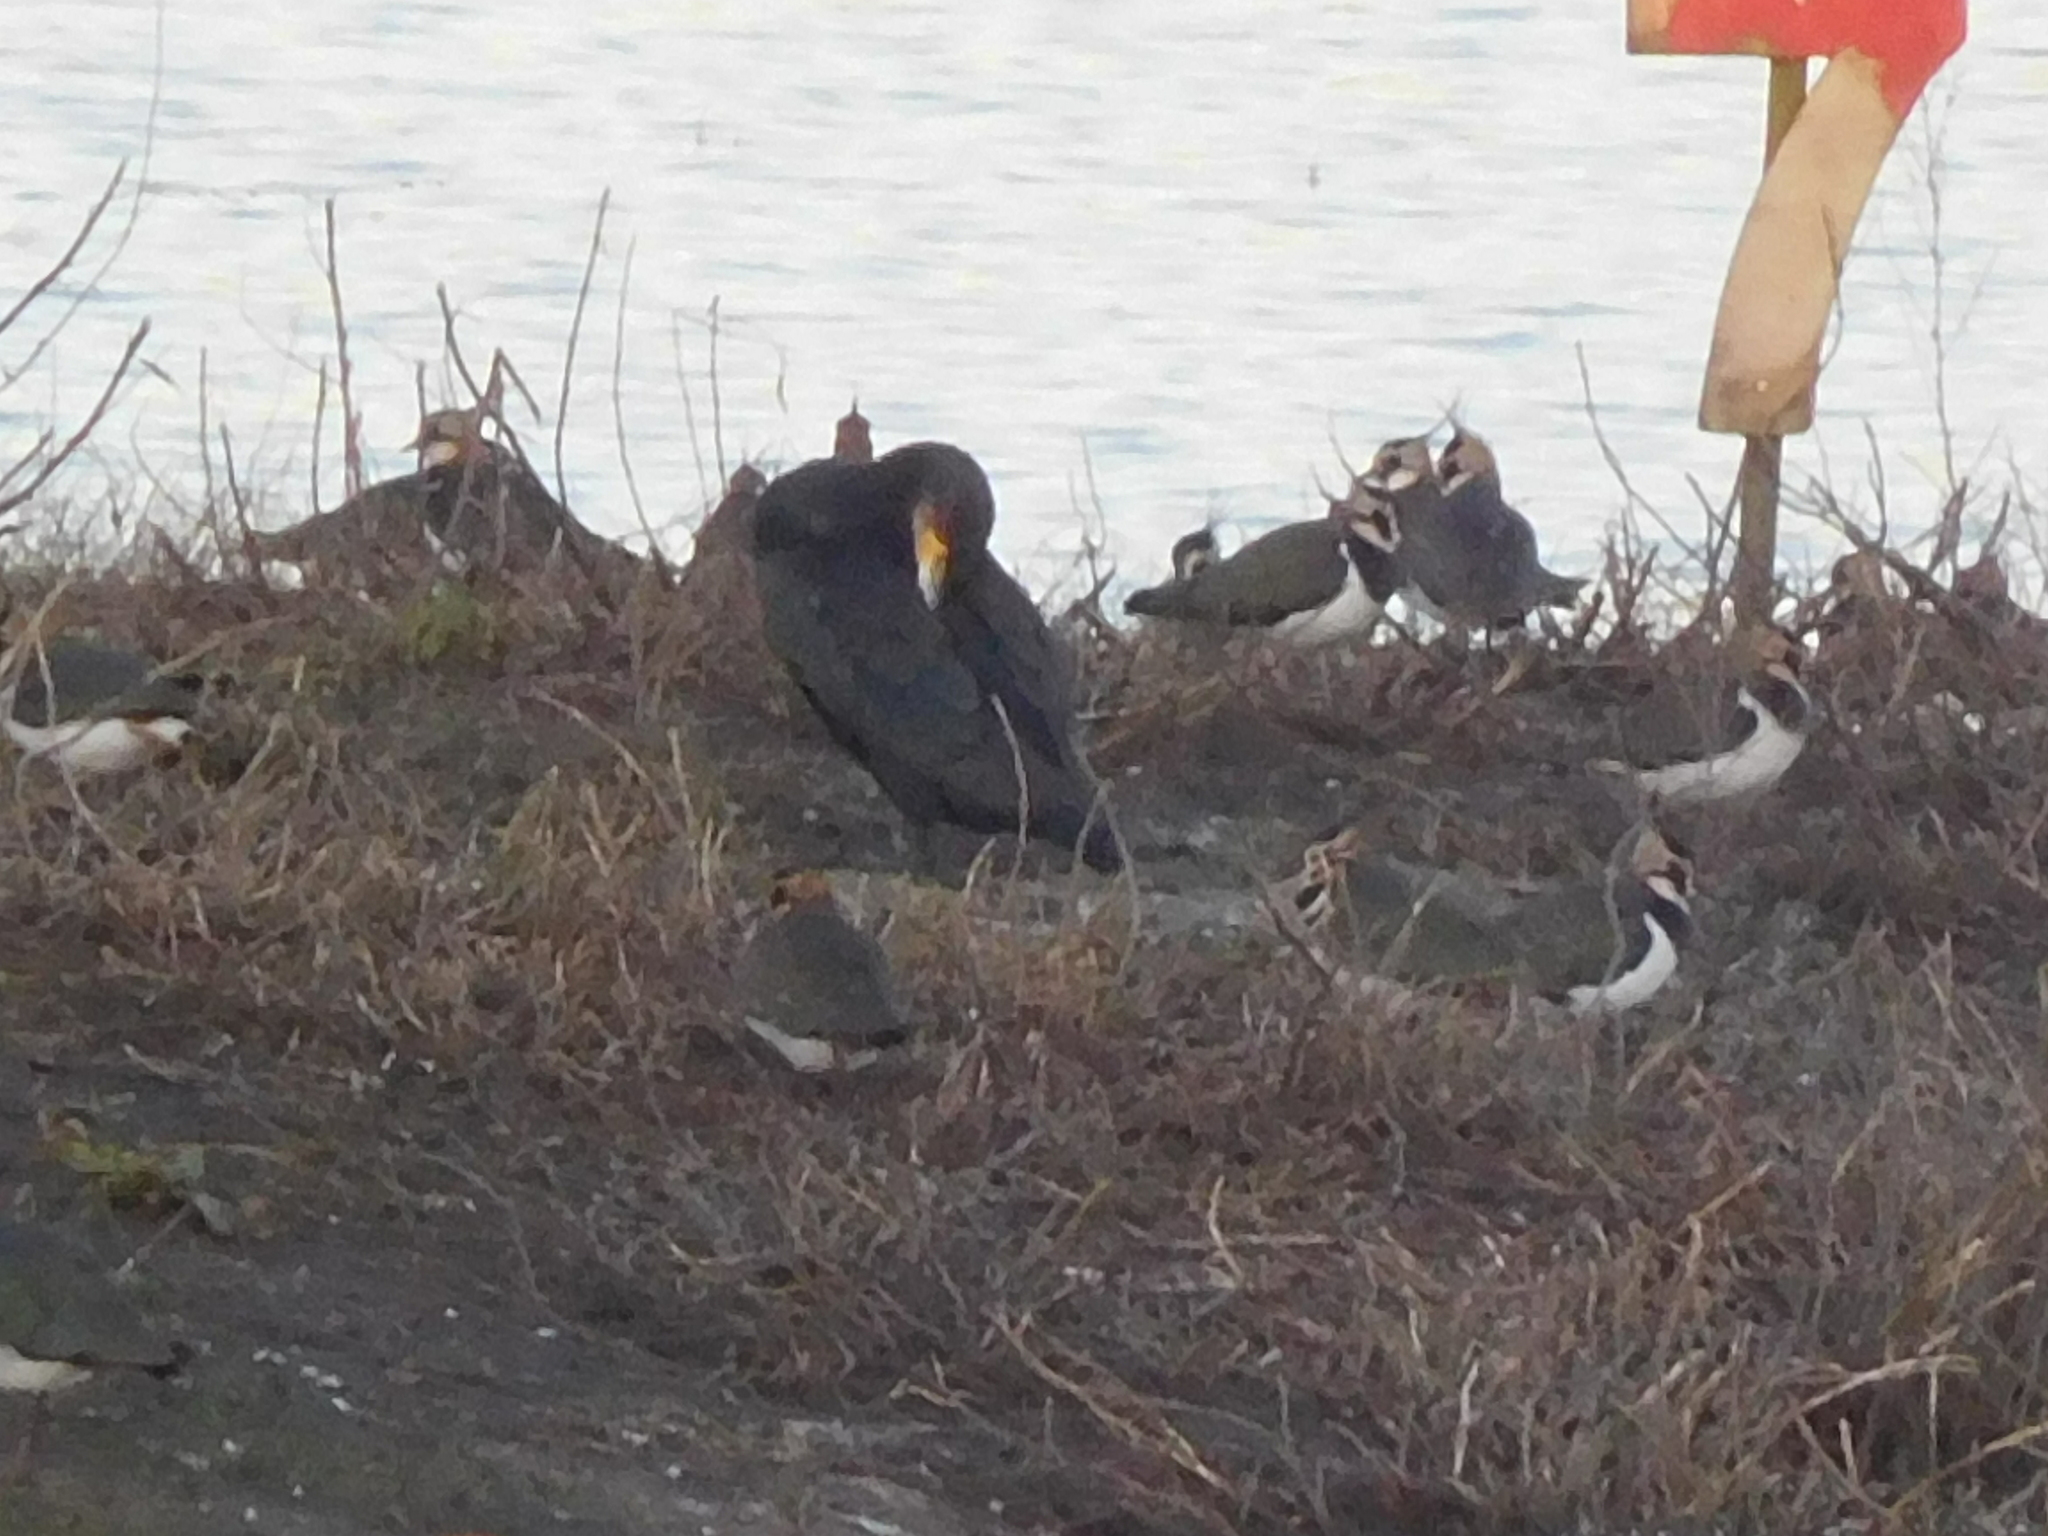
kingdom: Animalia
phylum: Chordata
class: Aves
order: Charadriiformes
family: Charadriidae
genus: Vanellus
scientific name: Vanellus vanellus
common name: Northern lapwing
